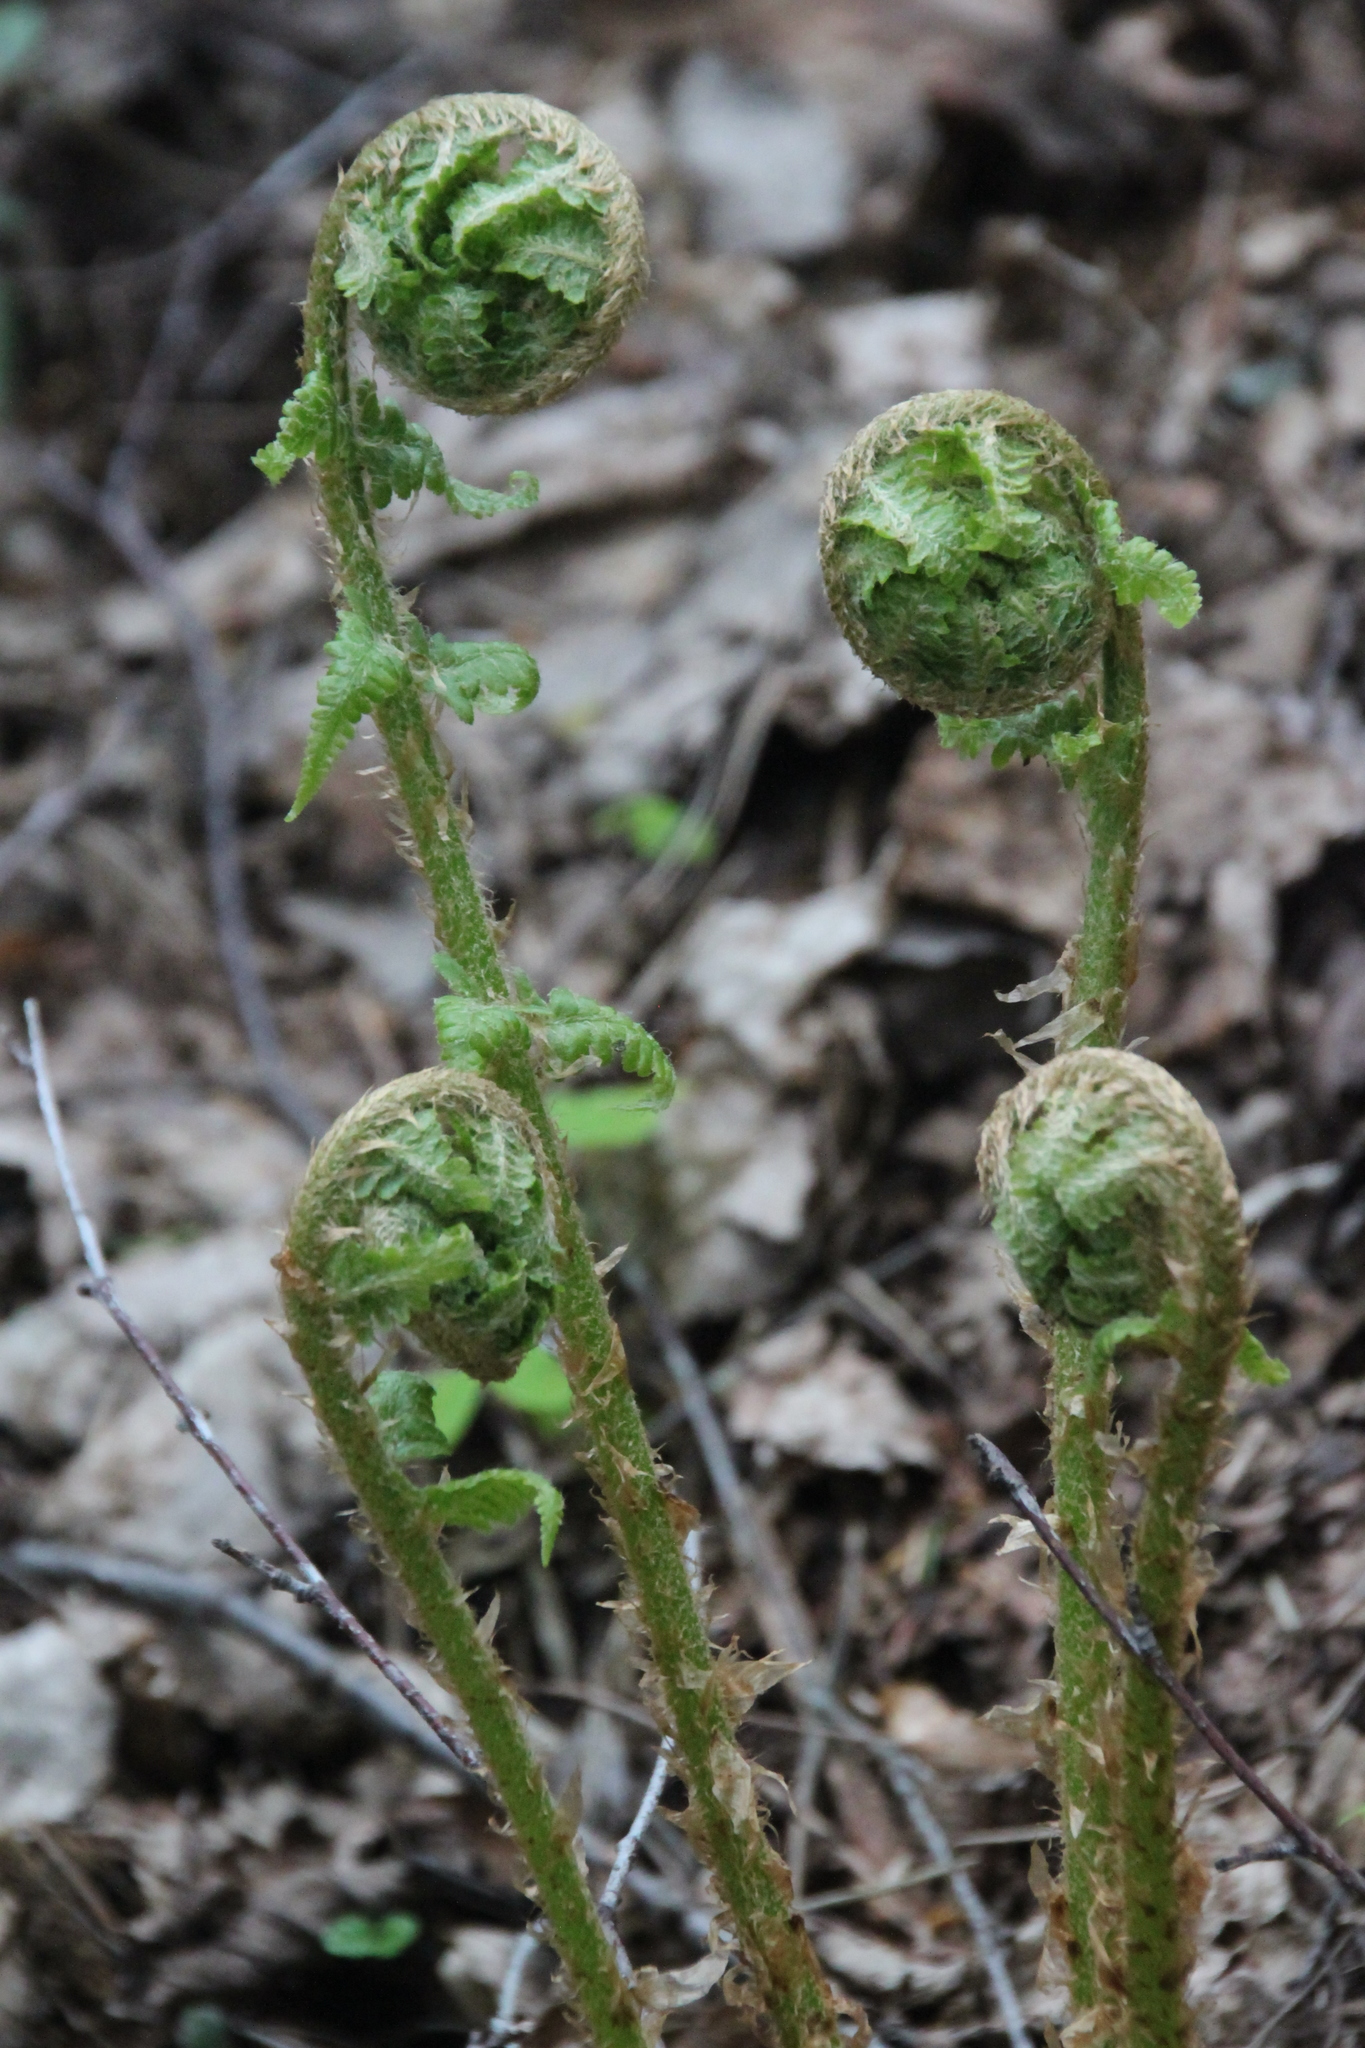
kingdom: Plantae
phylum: Tracheophyta
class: Polypodiopsida
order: Polypodiales
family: Dryopteridaceae
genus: Dryopteris
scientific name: Dryopteris filix-mas
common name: Male fern
